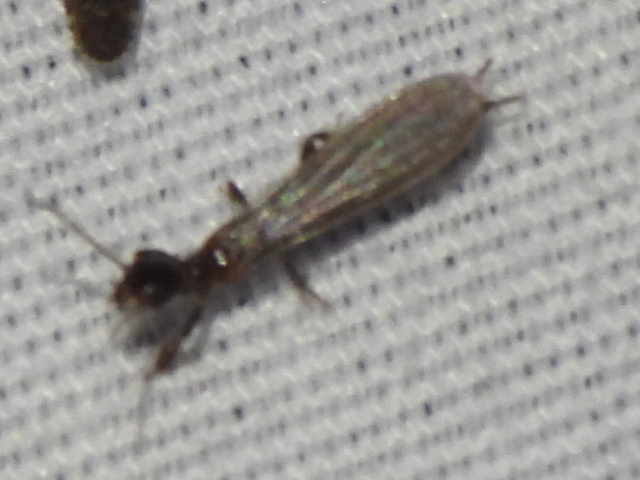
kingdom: Animalia
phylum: Arthropoda
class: Insecta
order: Embioptera
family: Oligotomidae
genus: Oligotoma
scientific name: Oligotoma nigra
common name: Black webspinner
